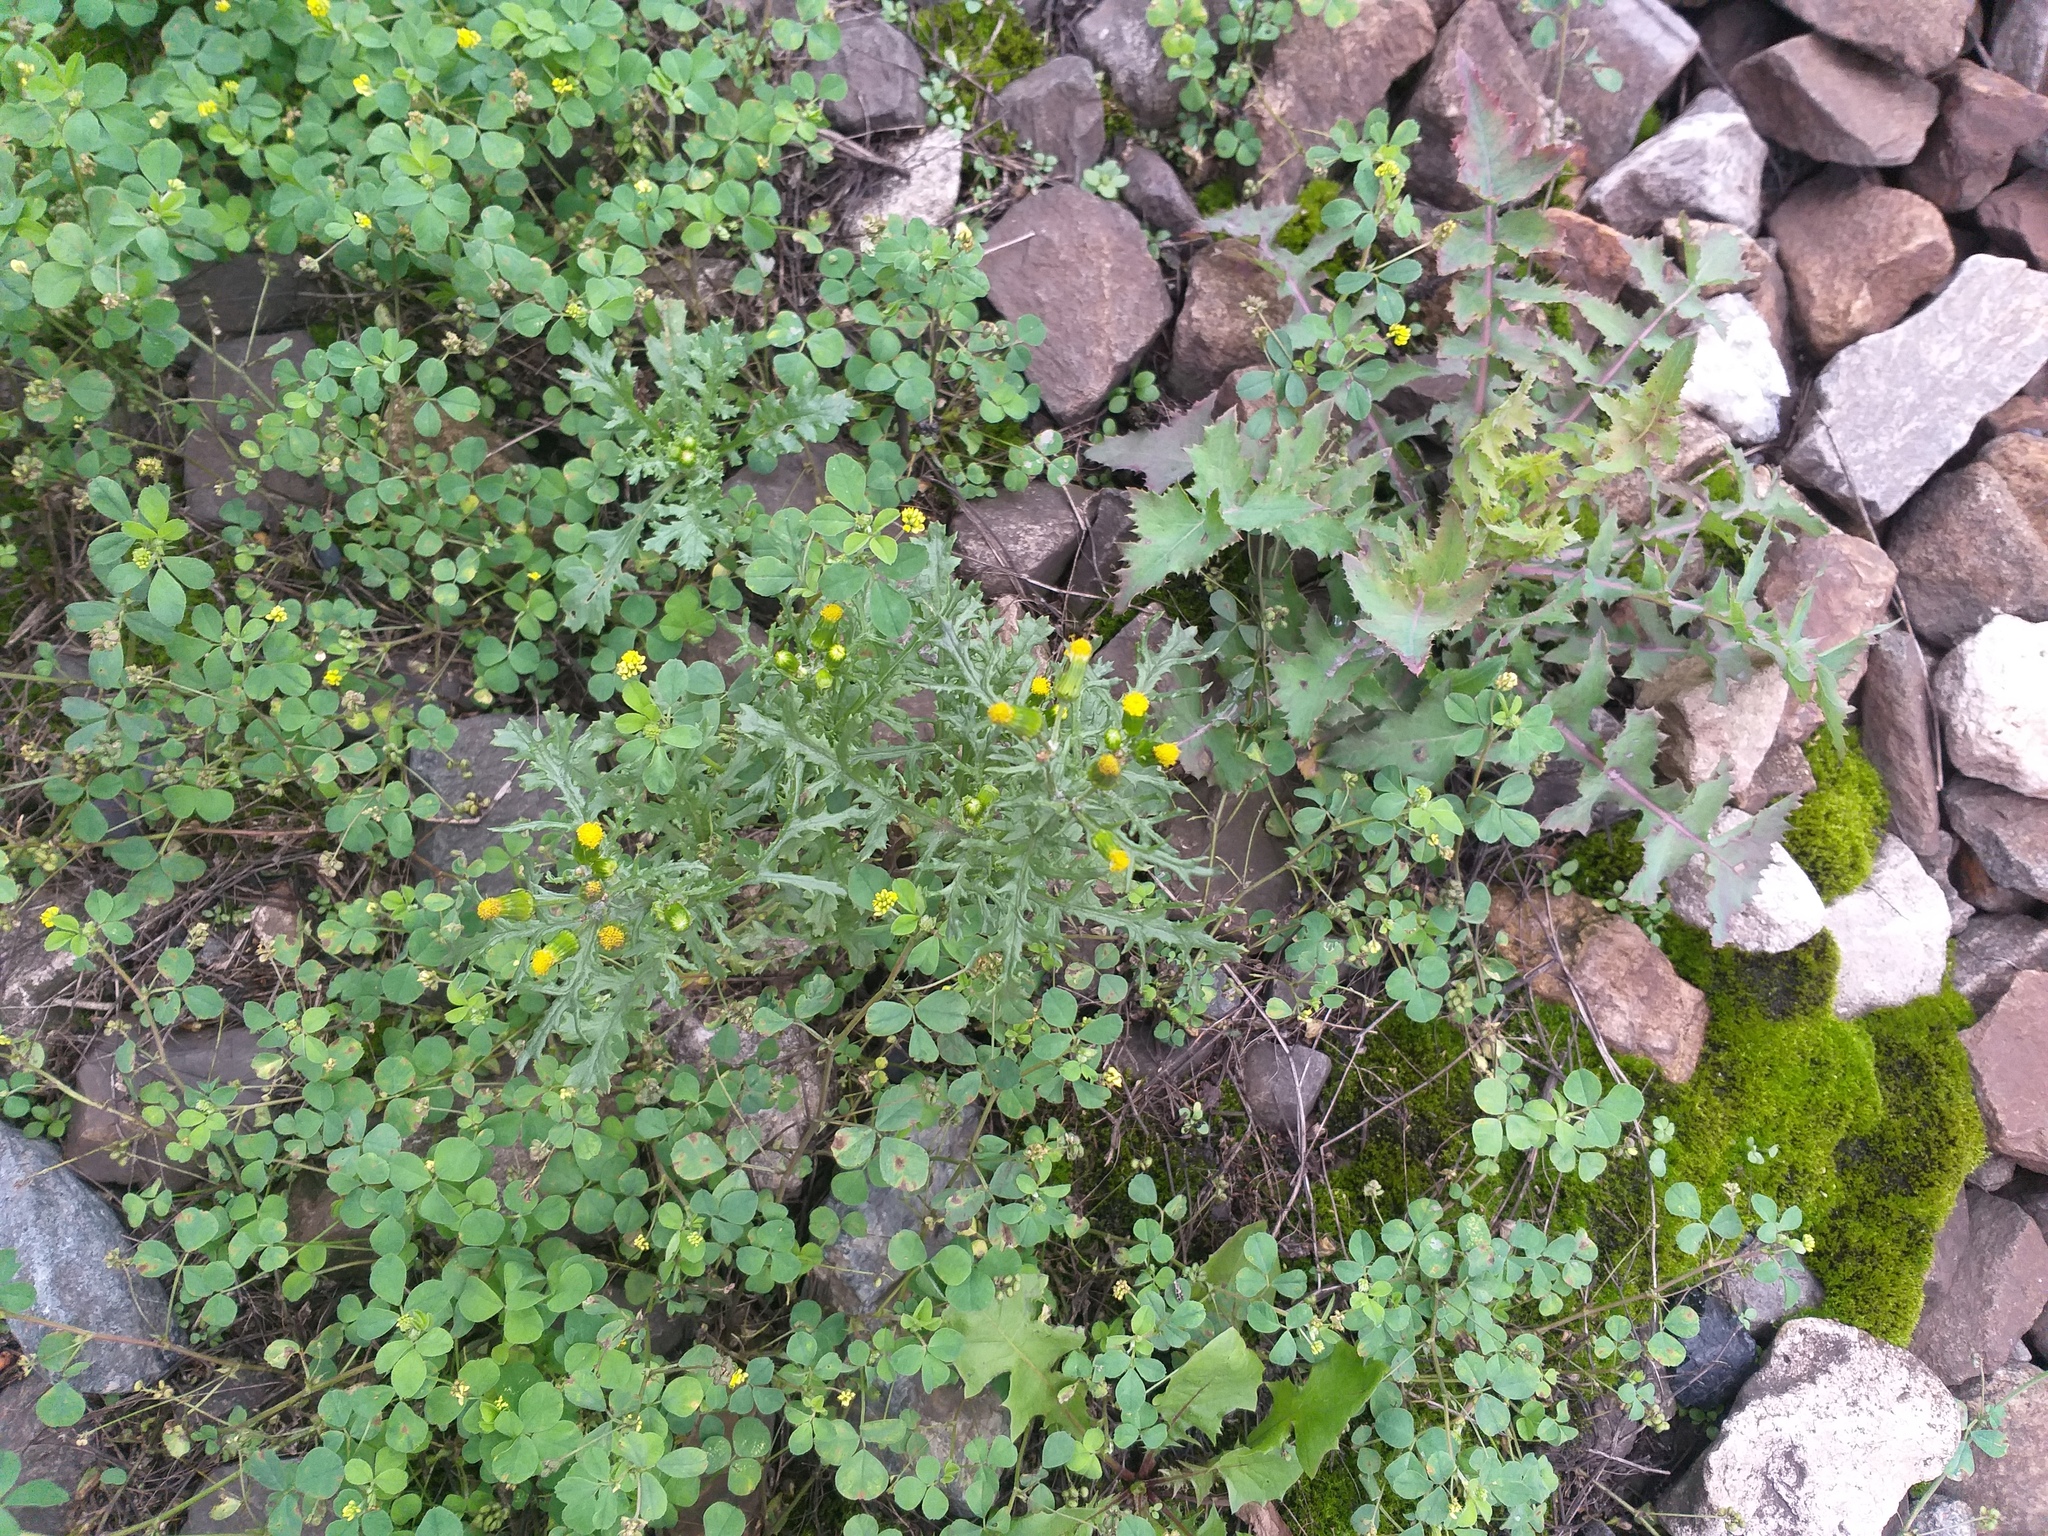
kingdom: Plantae
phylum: Tracheophyta
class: Magnoliopsida
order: Asterales
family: Asteraceae
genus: Senecio
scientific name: Senecio vulgaris
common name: Old-man-in-the-spring
